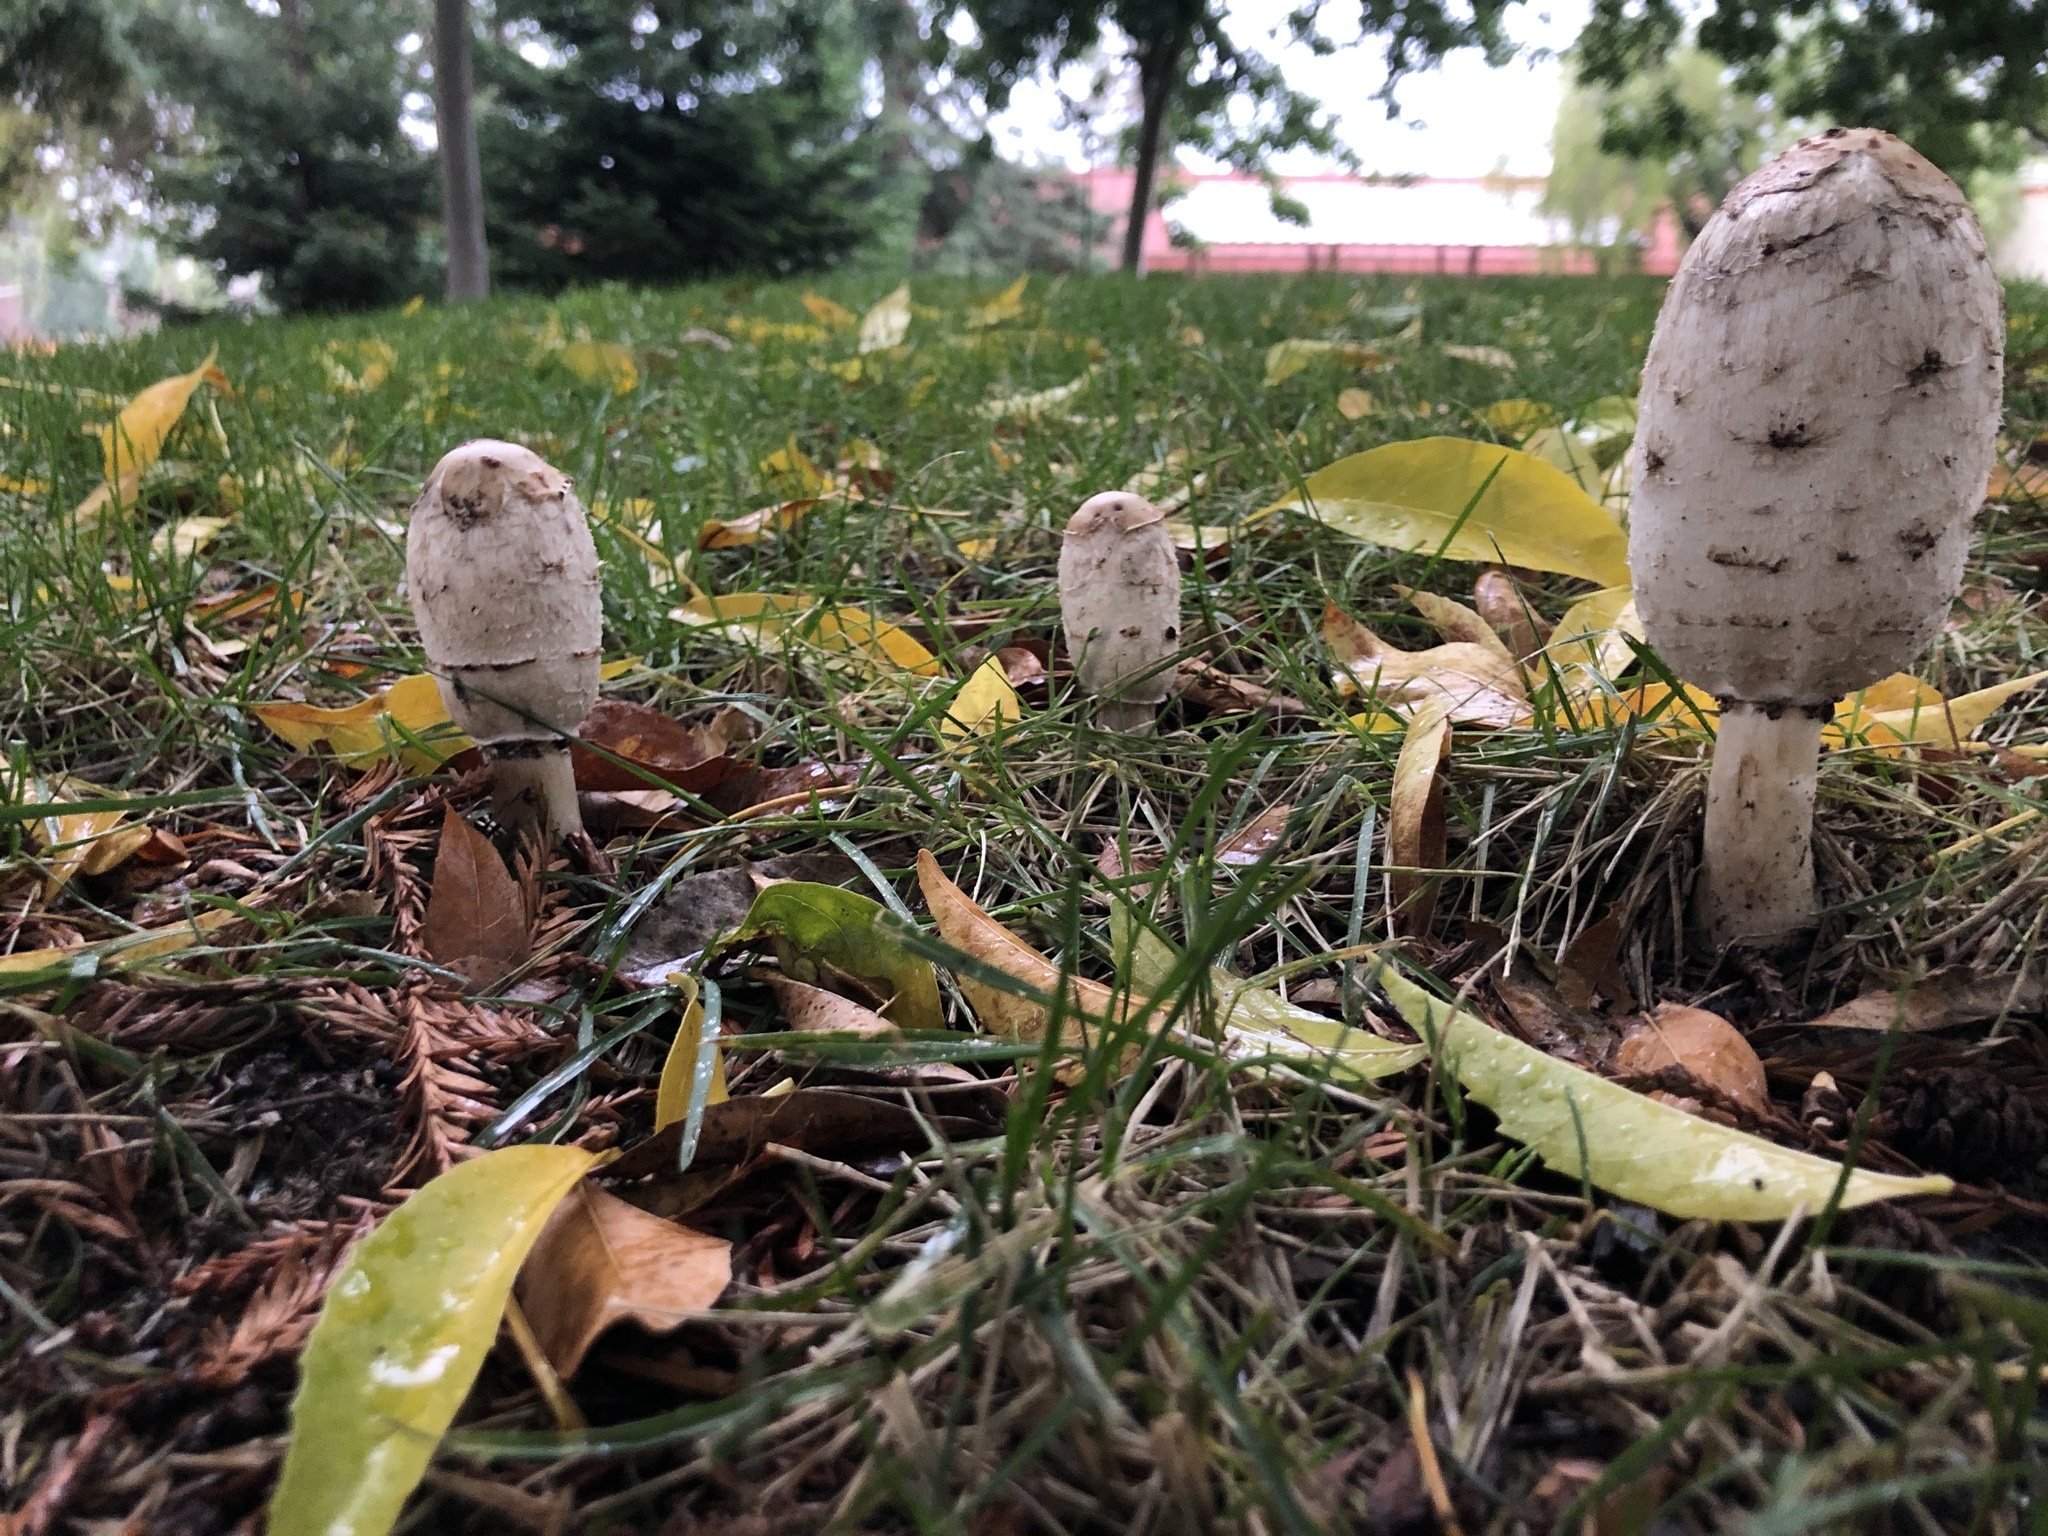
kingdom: Fungi
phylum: Basidiomycota
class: Agaricomycetes
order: Agaricales
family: Agaricaceae
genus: Coprinus
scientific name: Coprinus comatus
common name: Lawyer's wig
